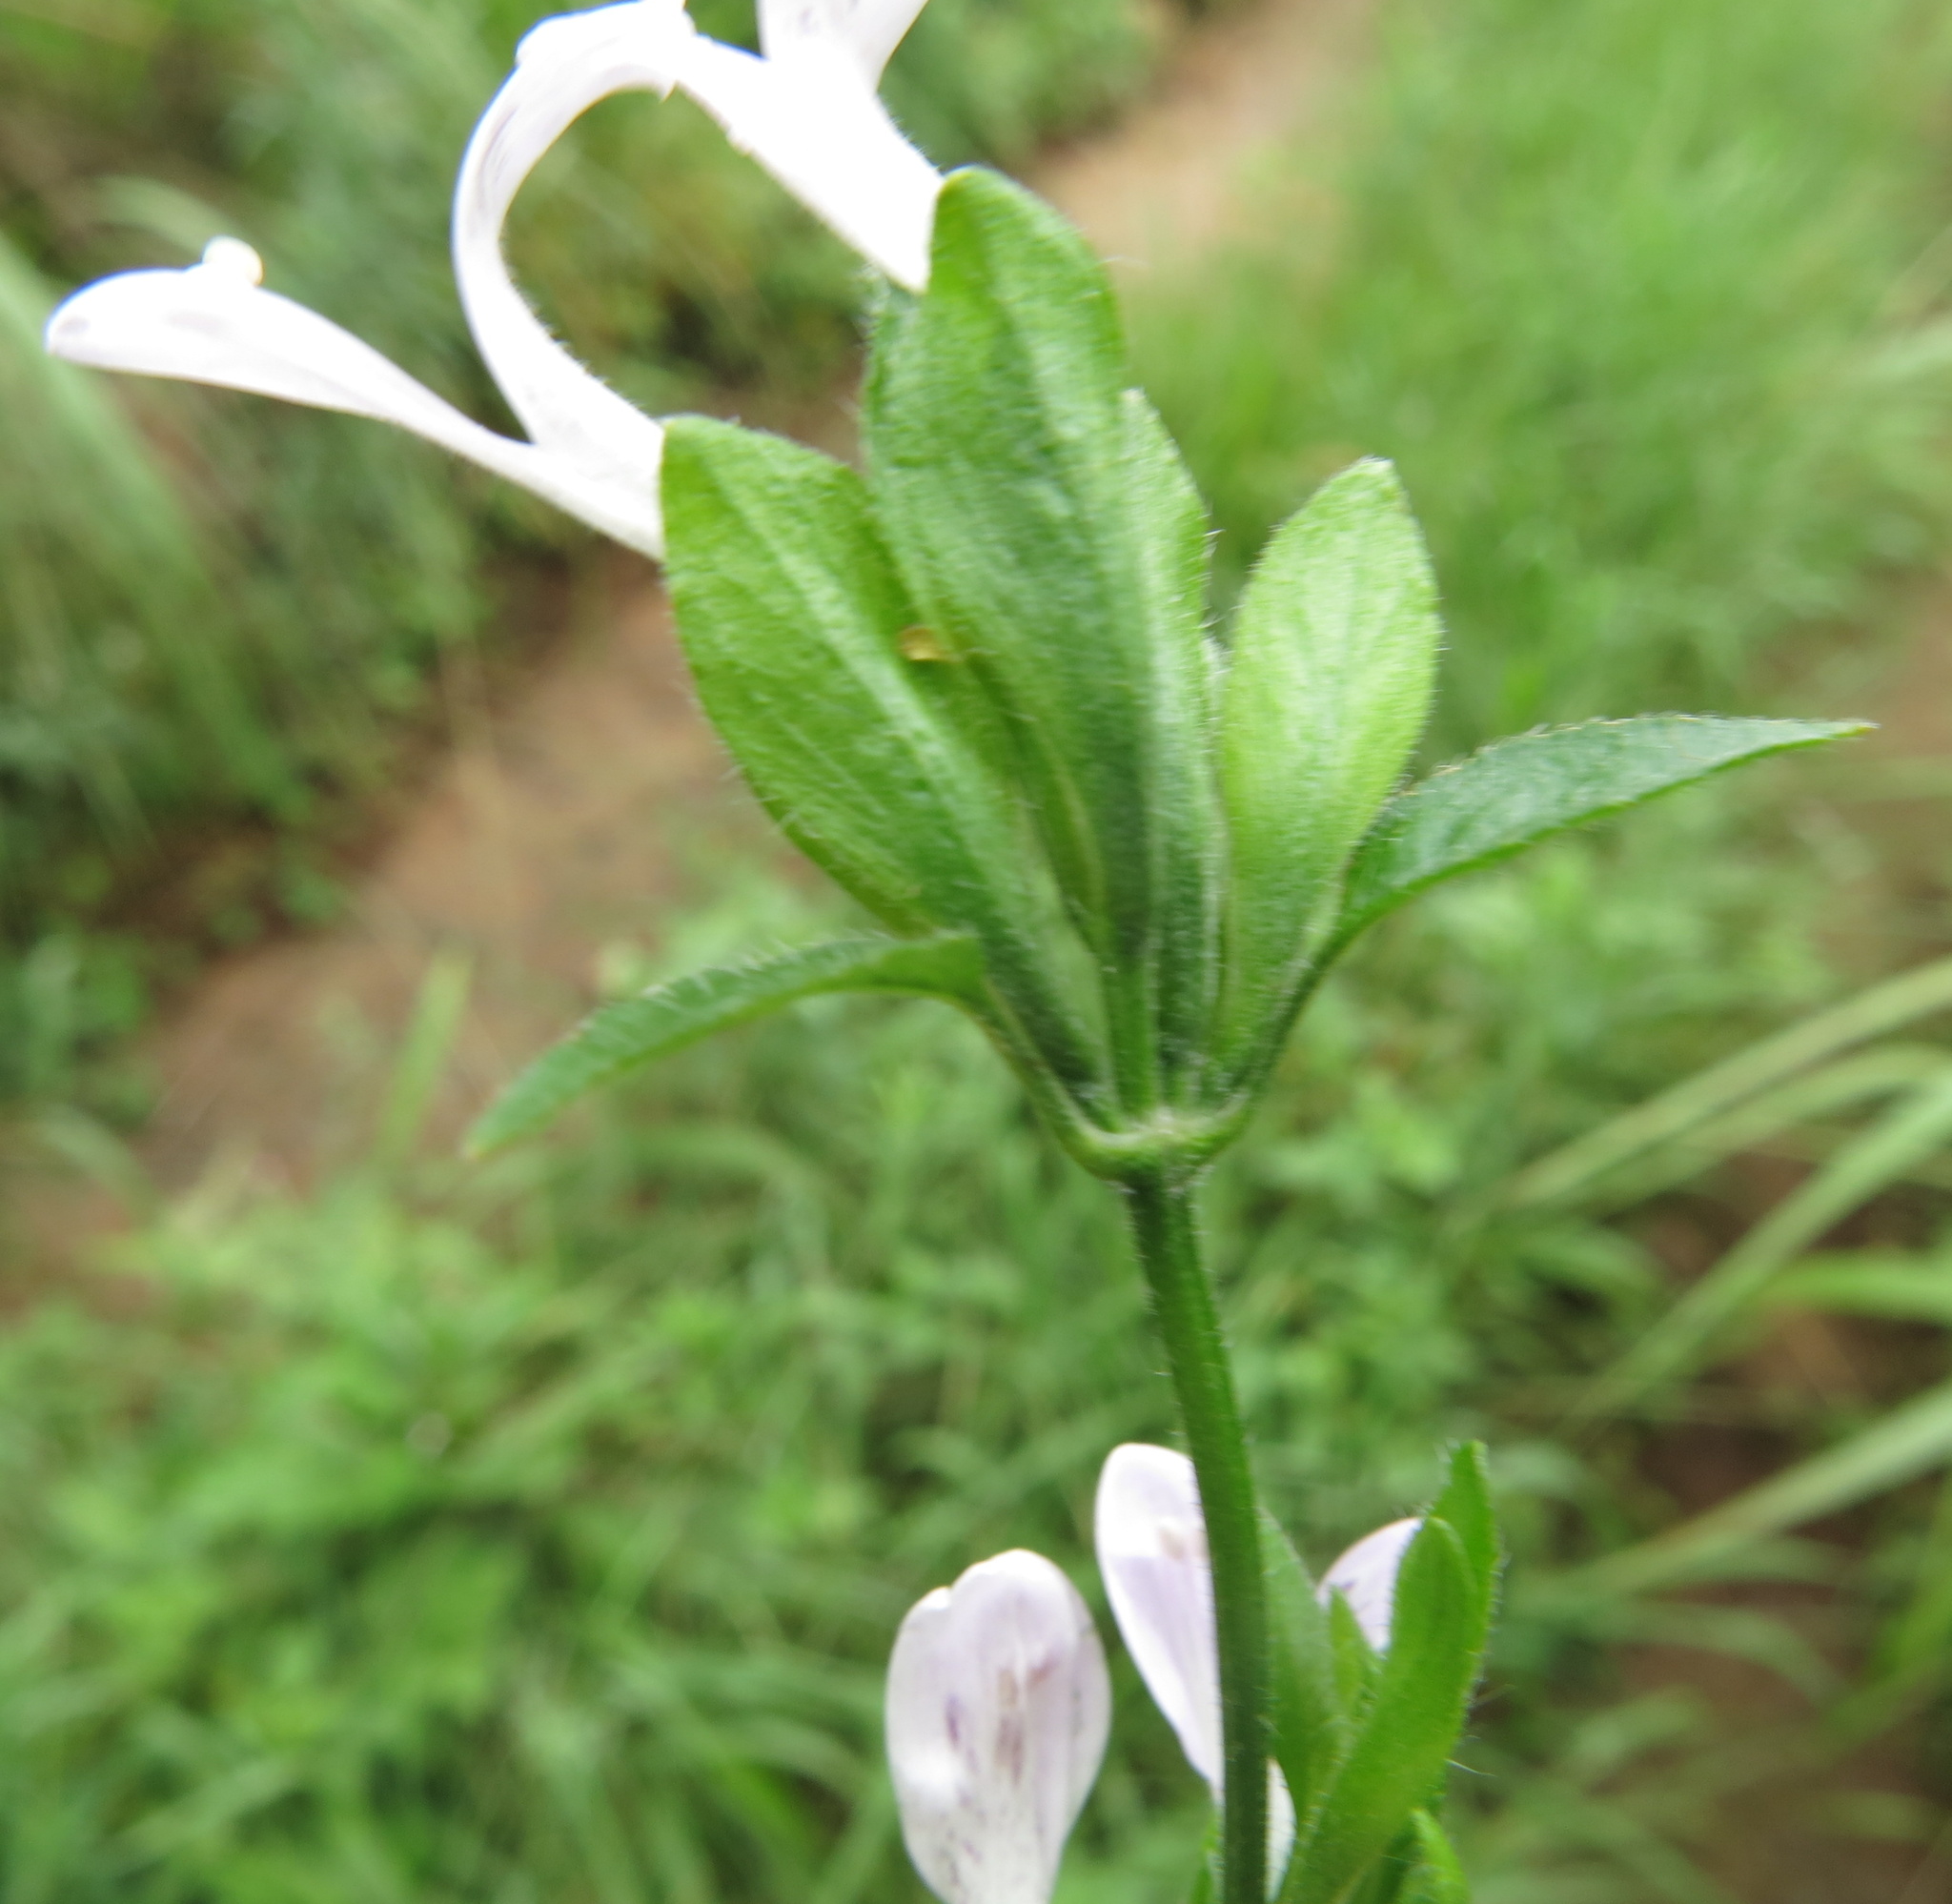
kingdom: Plantae
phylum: Tracheophyta
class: Magnoliopsida
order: Lamiales
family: Acanthaceae
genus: Hypoestes
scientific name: Hypoestes triflora
